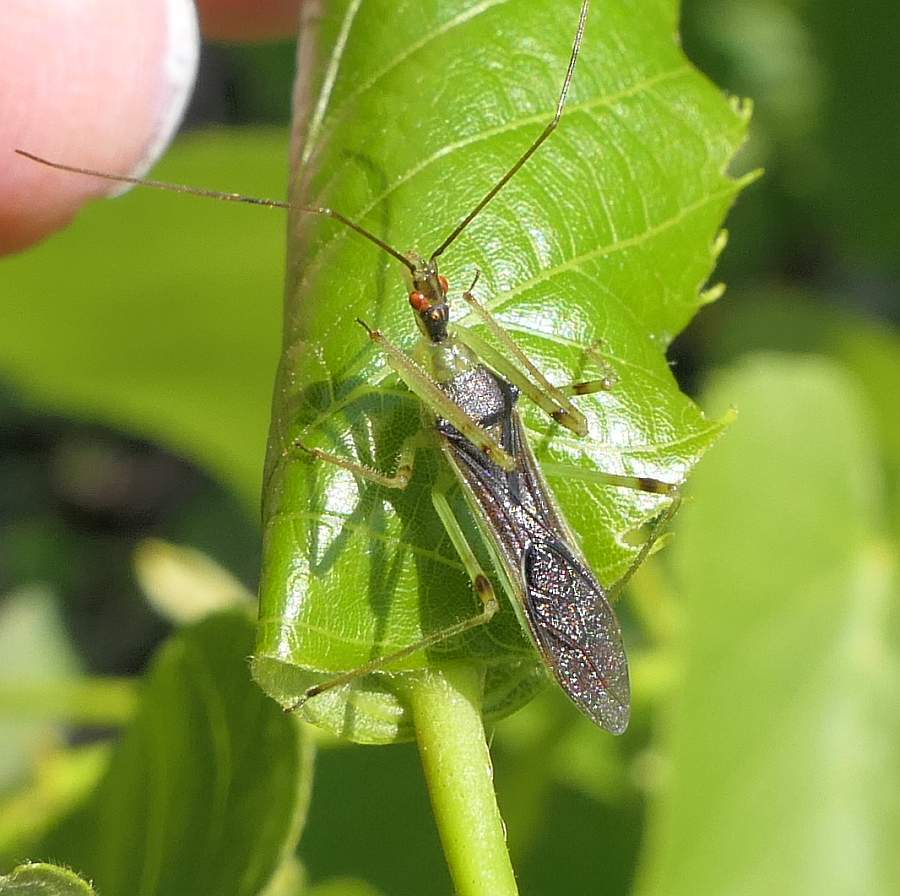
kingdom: Animalia
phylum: Arthropoda
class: Insecta
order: Hemiptera
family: Reduviidae
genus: Zelus
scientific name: Zelus luridus
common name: Pale green assassin bug
